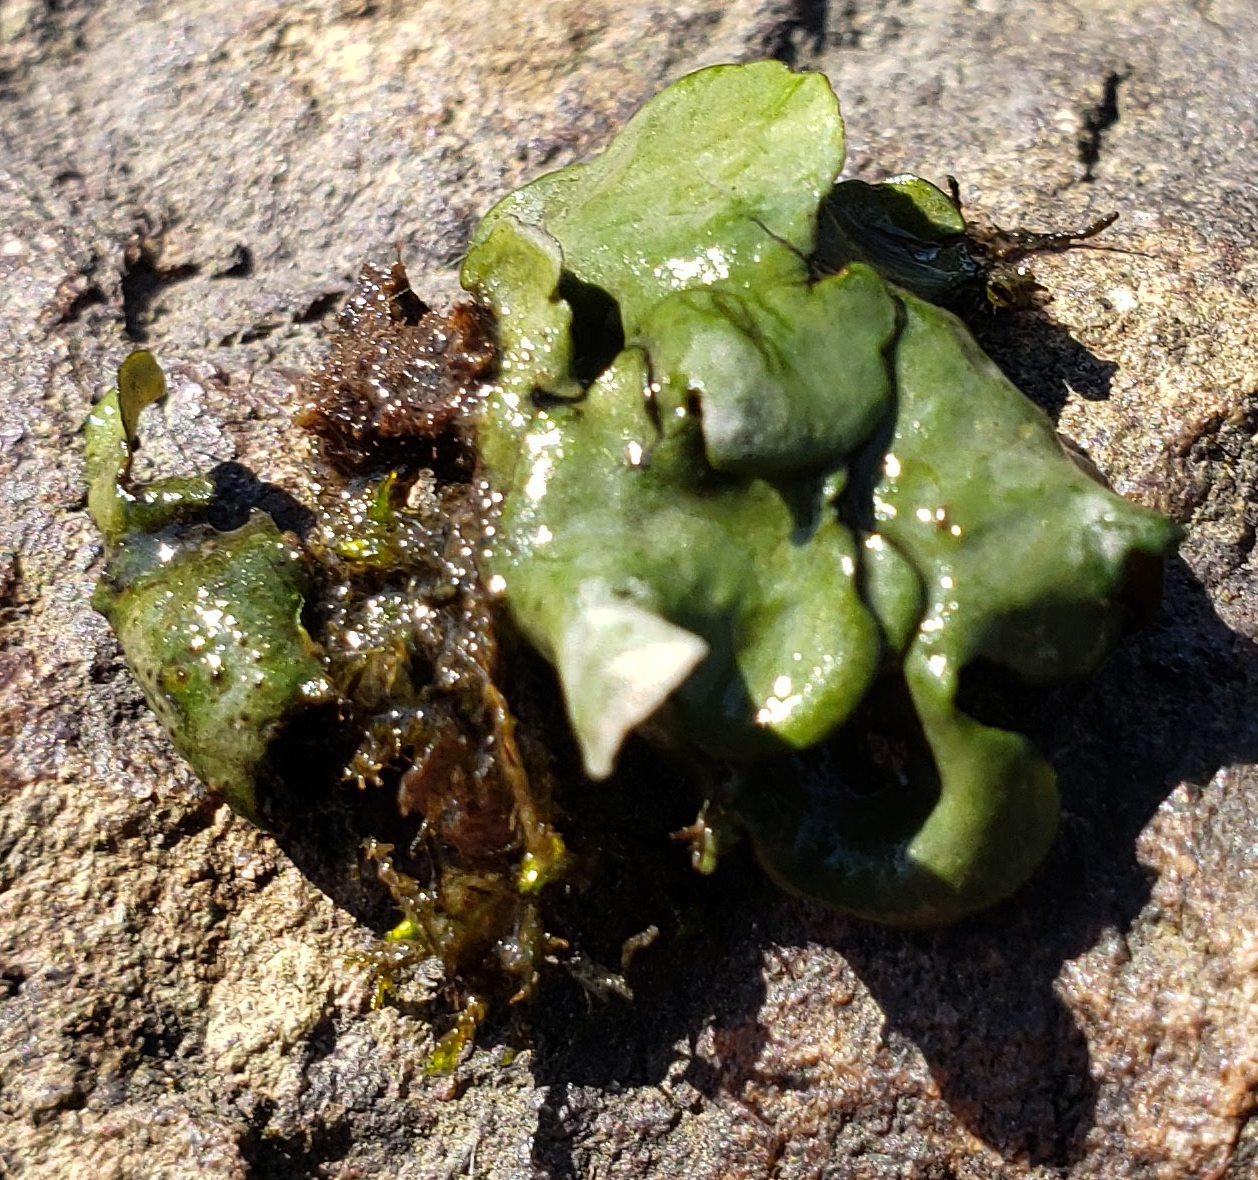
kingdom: Fungi
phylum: Ascomycota
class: Eurotiomycetes
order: Verrucariales
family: Verrucariaceae
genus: Dermatocarpon
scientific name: Dermatocarpon luridum
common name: Brook stippleback lichen
